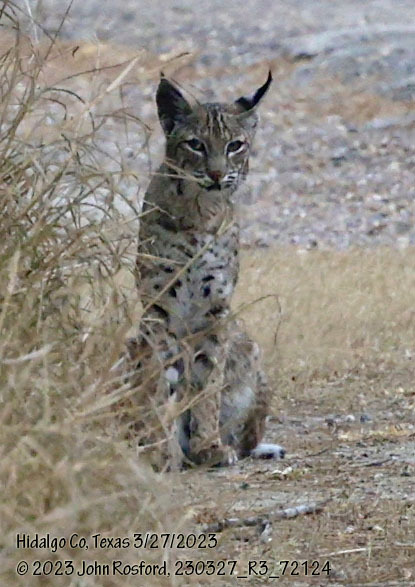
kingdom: Animalia
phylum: Chordata
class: Mammalia
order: Carnivora
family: Felidae
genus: Lynx
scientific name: Lynx rufus
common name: Bobcat
